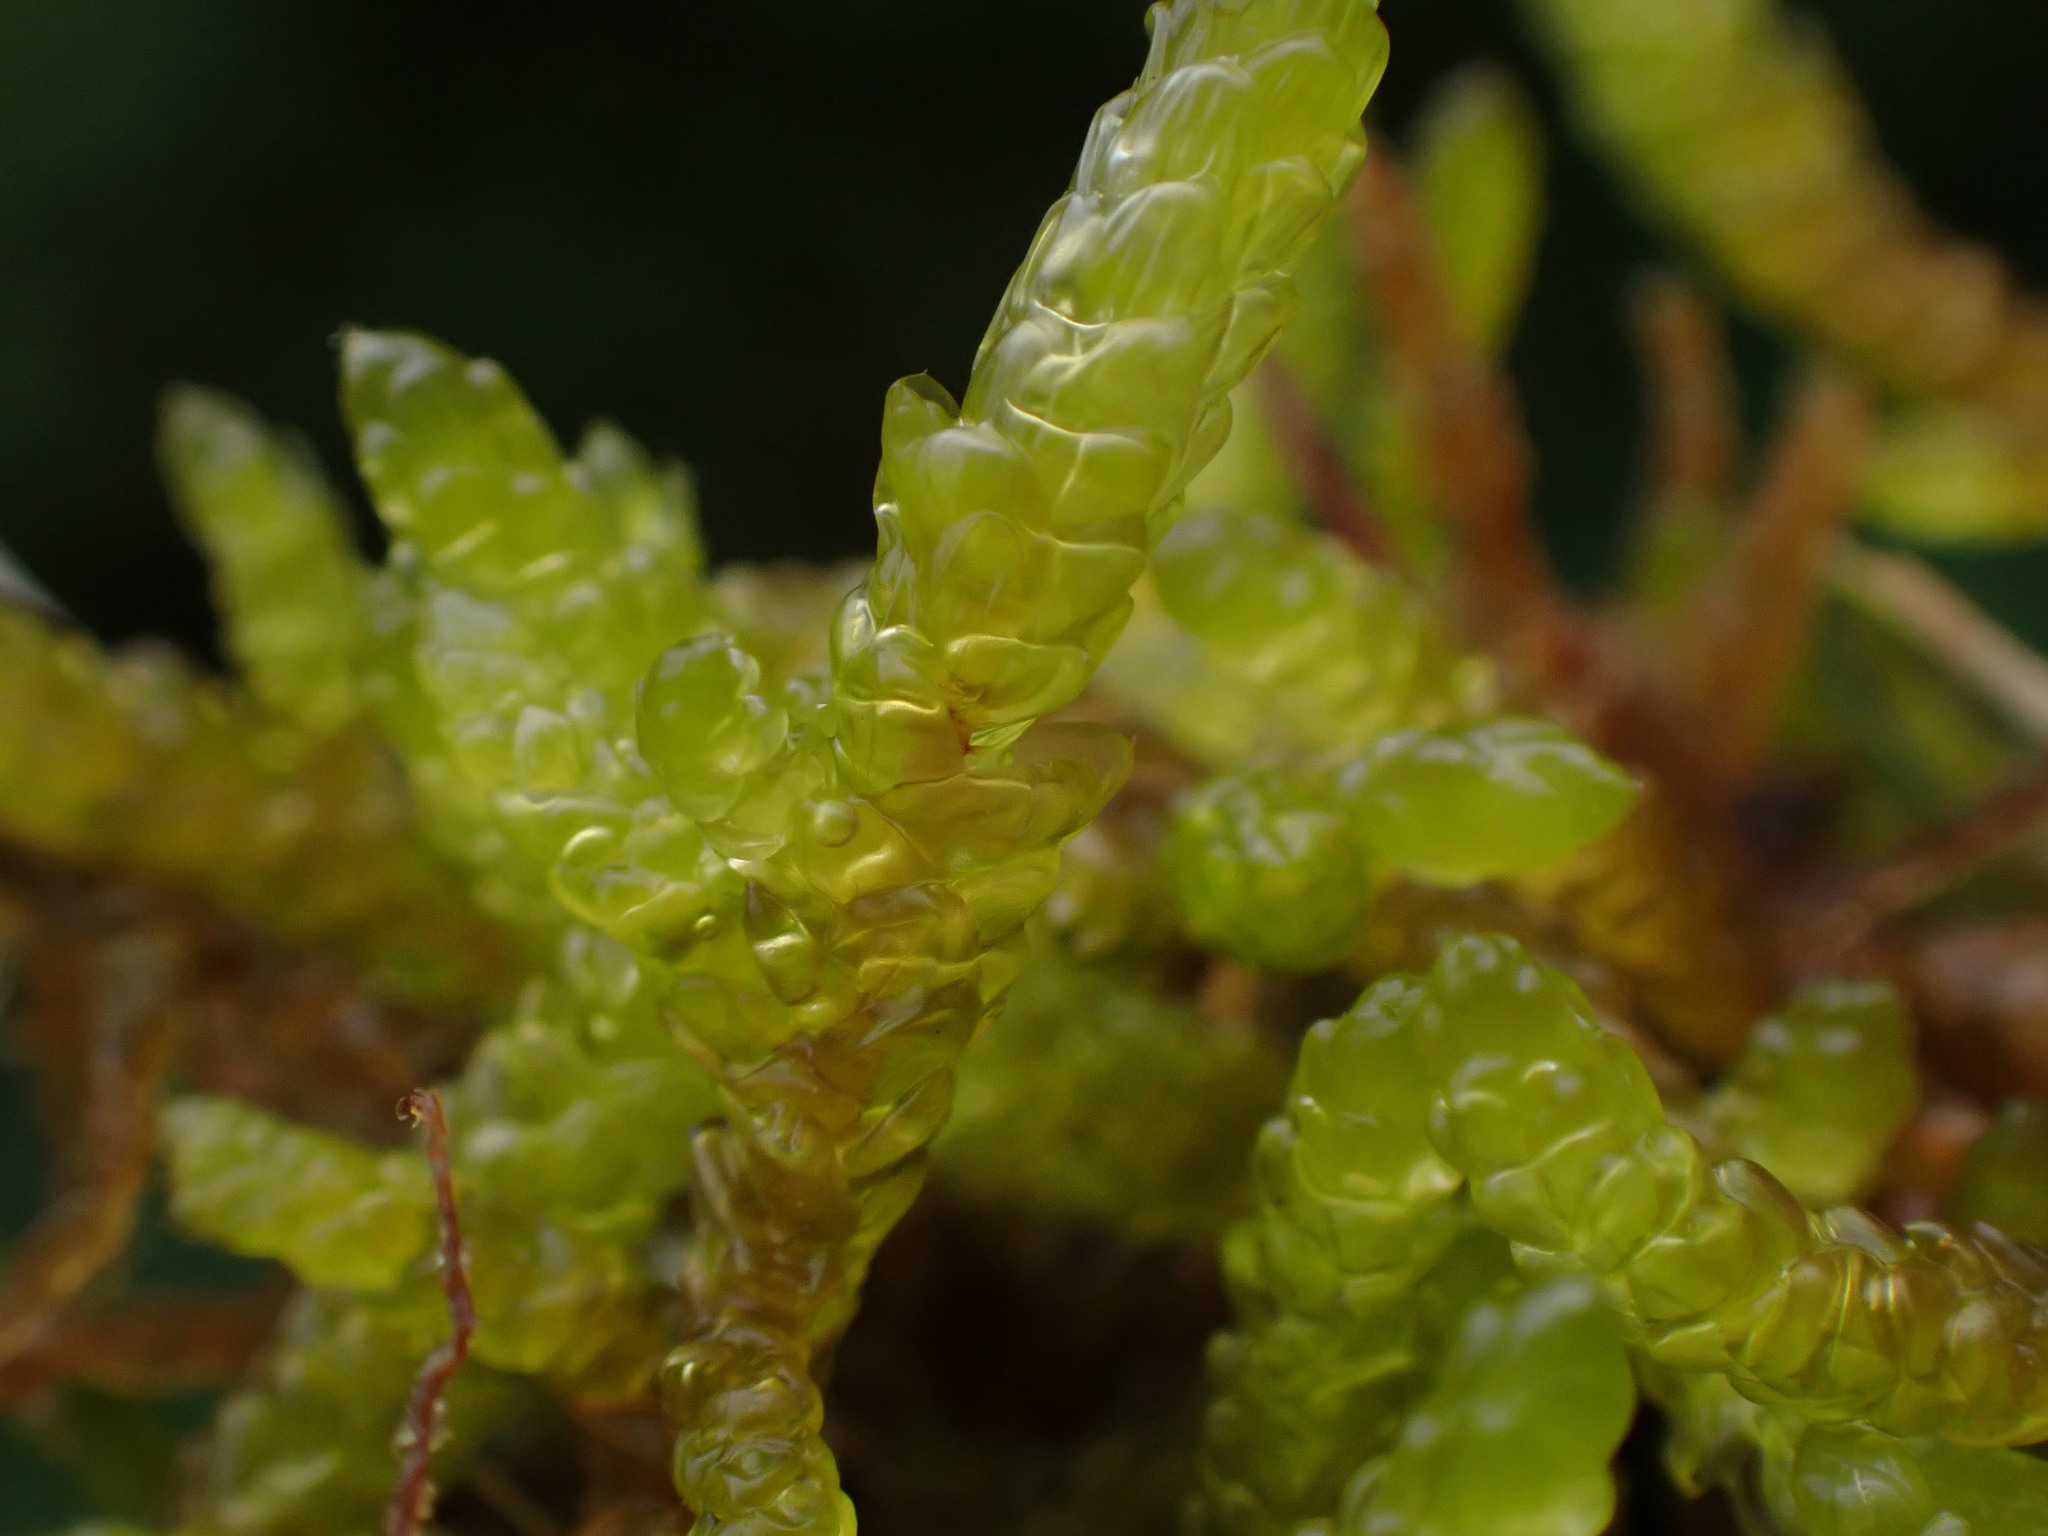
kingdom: Plantae
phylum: Bryophyta
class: Bryopsida
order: Hypnales
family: Brachytheciaceae
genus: Pseudoscleropodium
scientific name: Pseudoscleropodium purum
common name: Neat feather-moss
